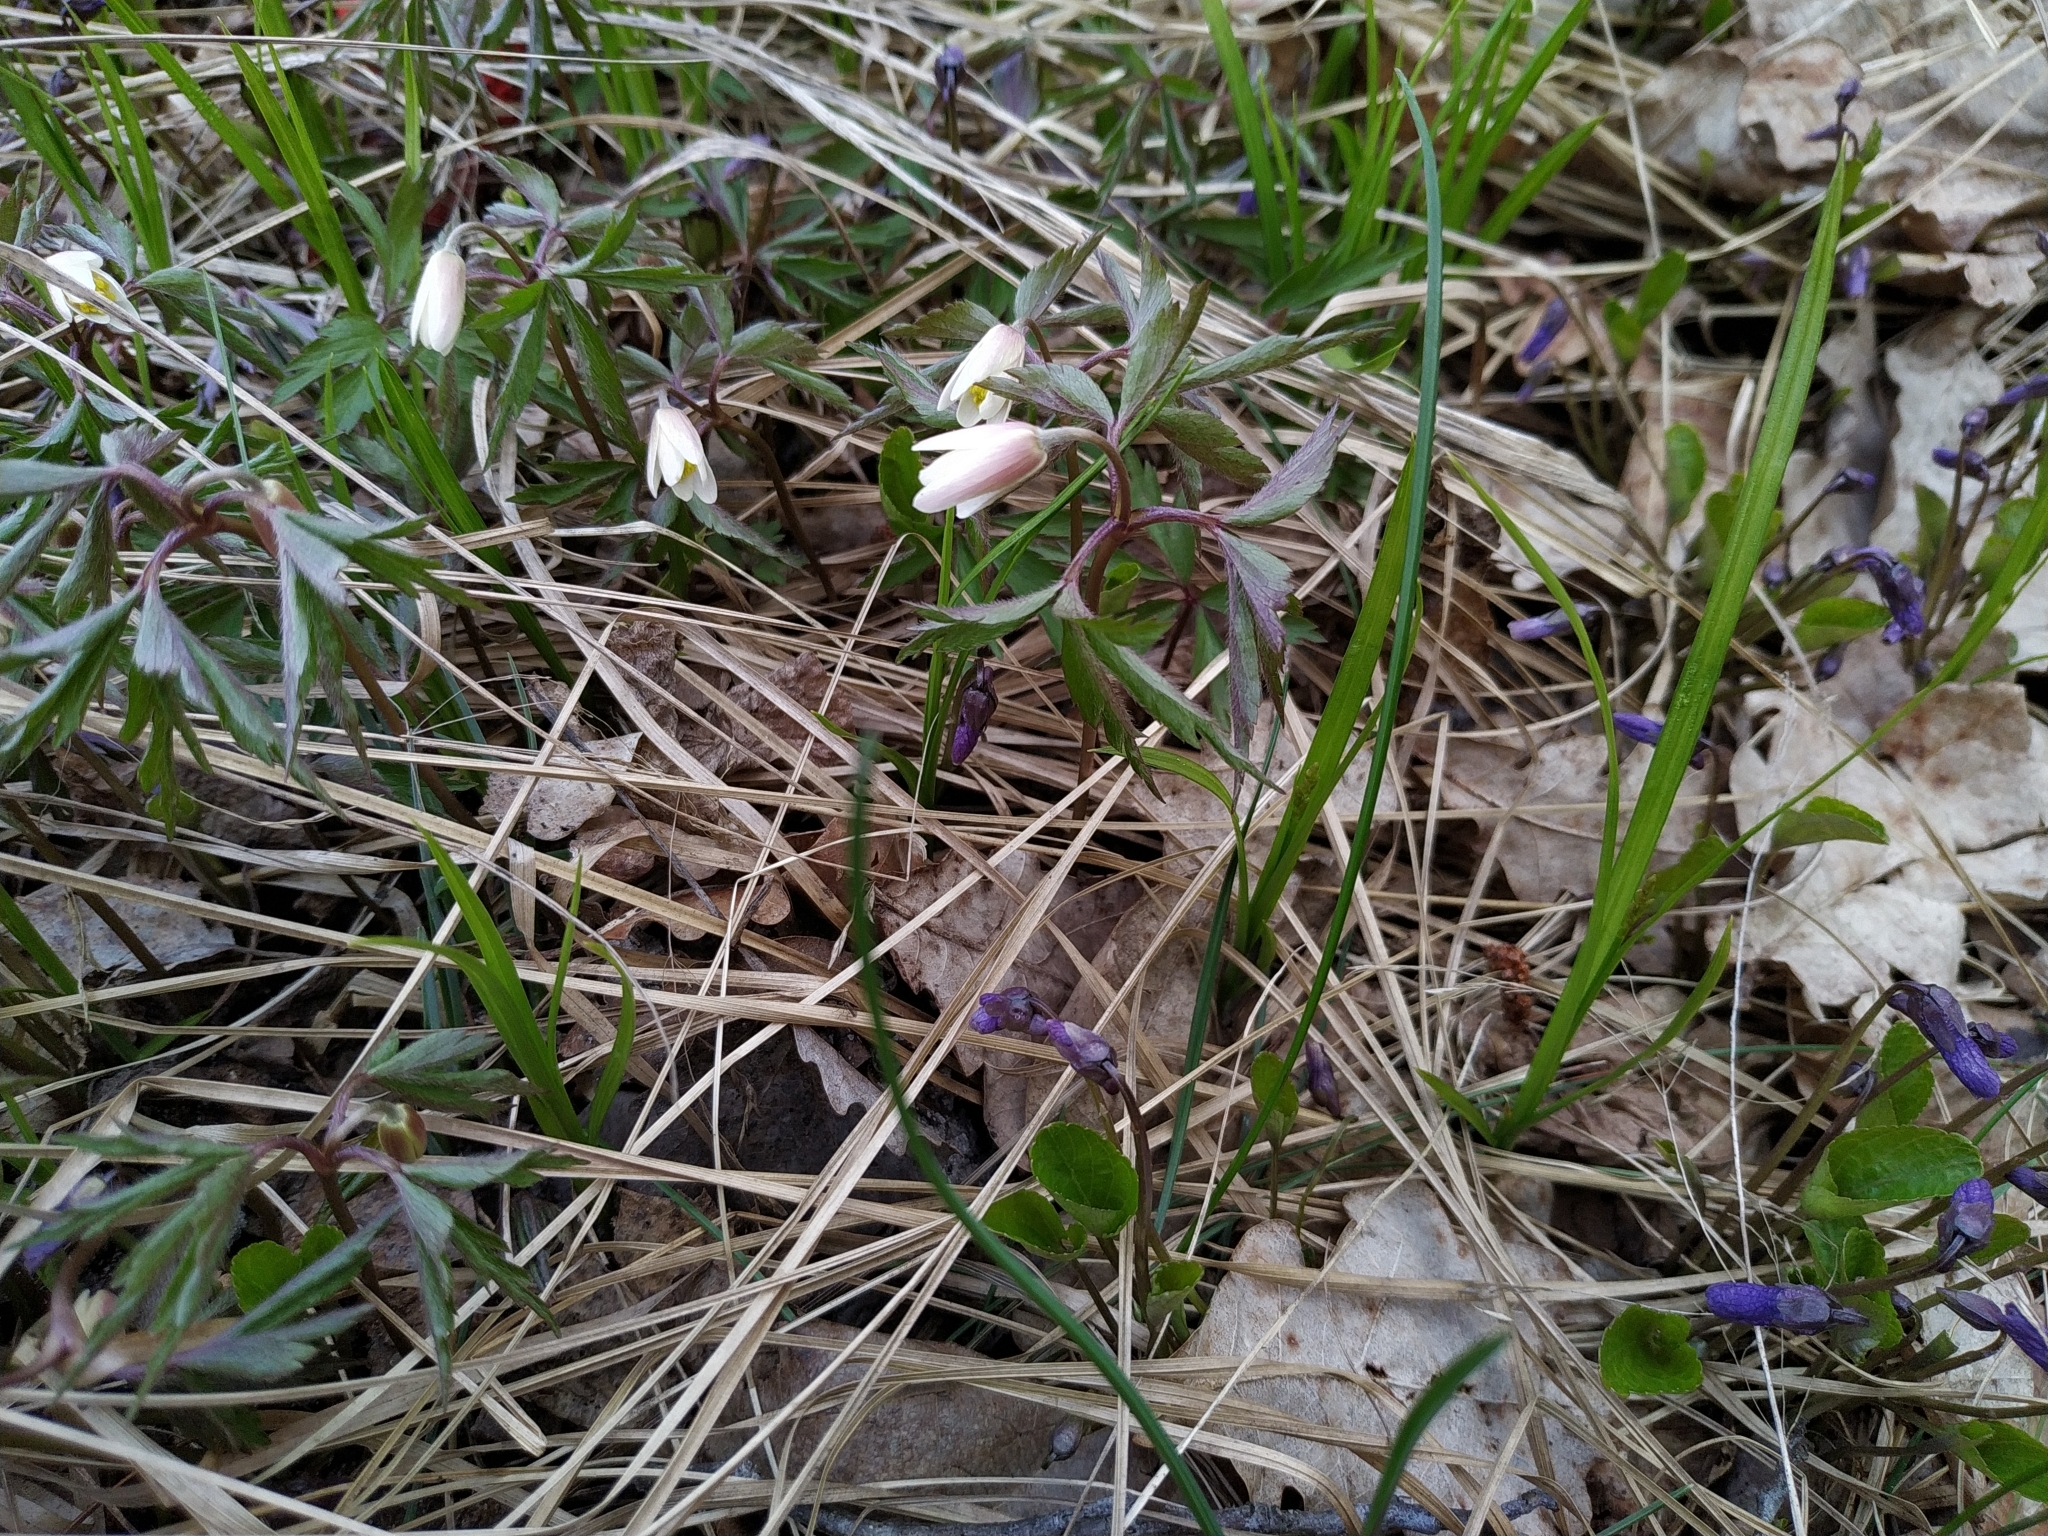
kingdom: Plantae
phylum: Tracheophyta
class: Magnoliopsida
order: Ranunculales
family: Ranunculaceae
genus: Anemone
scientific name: Anemone nemorosa
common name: Wood anemone
